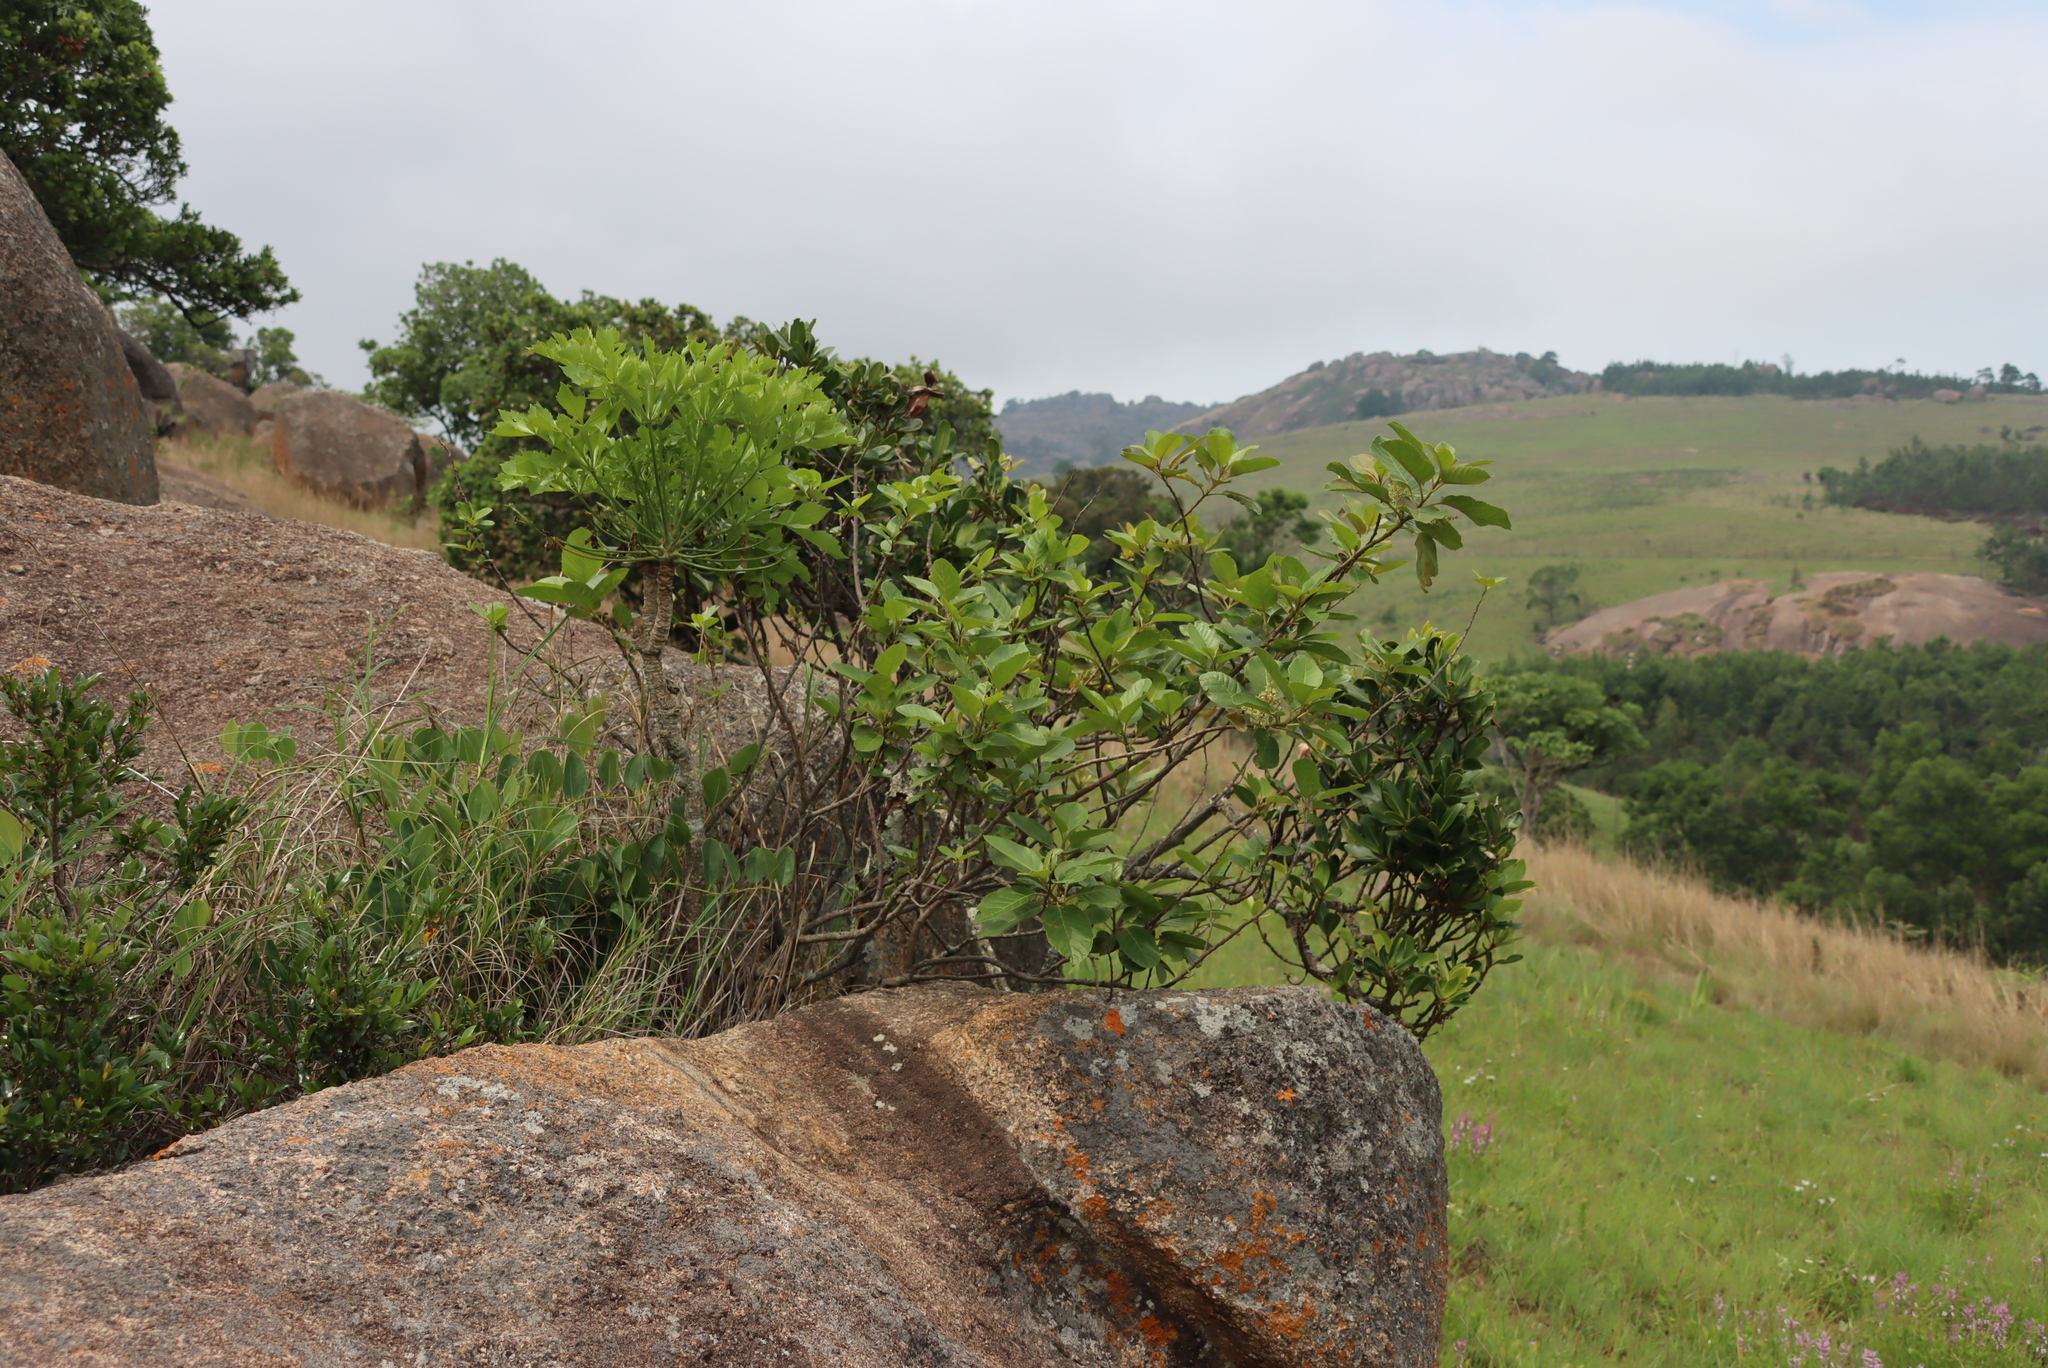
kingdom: Plantae
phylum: Tracheophyta
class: Magnoliopsida
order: Apiales
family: Araliaceae
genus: Cussonia
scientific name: Cussonia spicata
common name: Common cabbagetree
